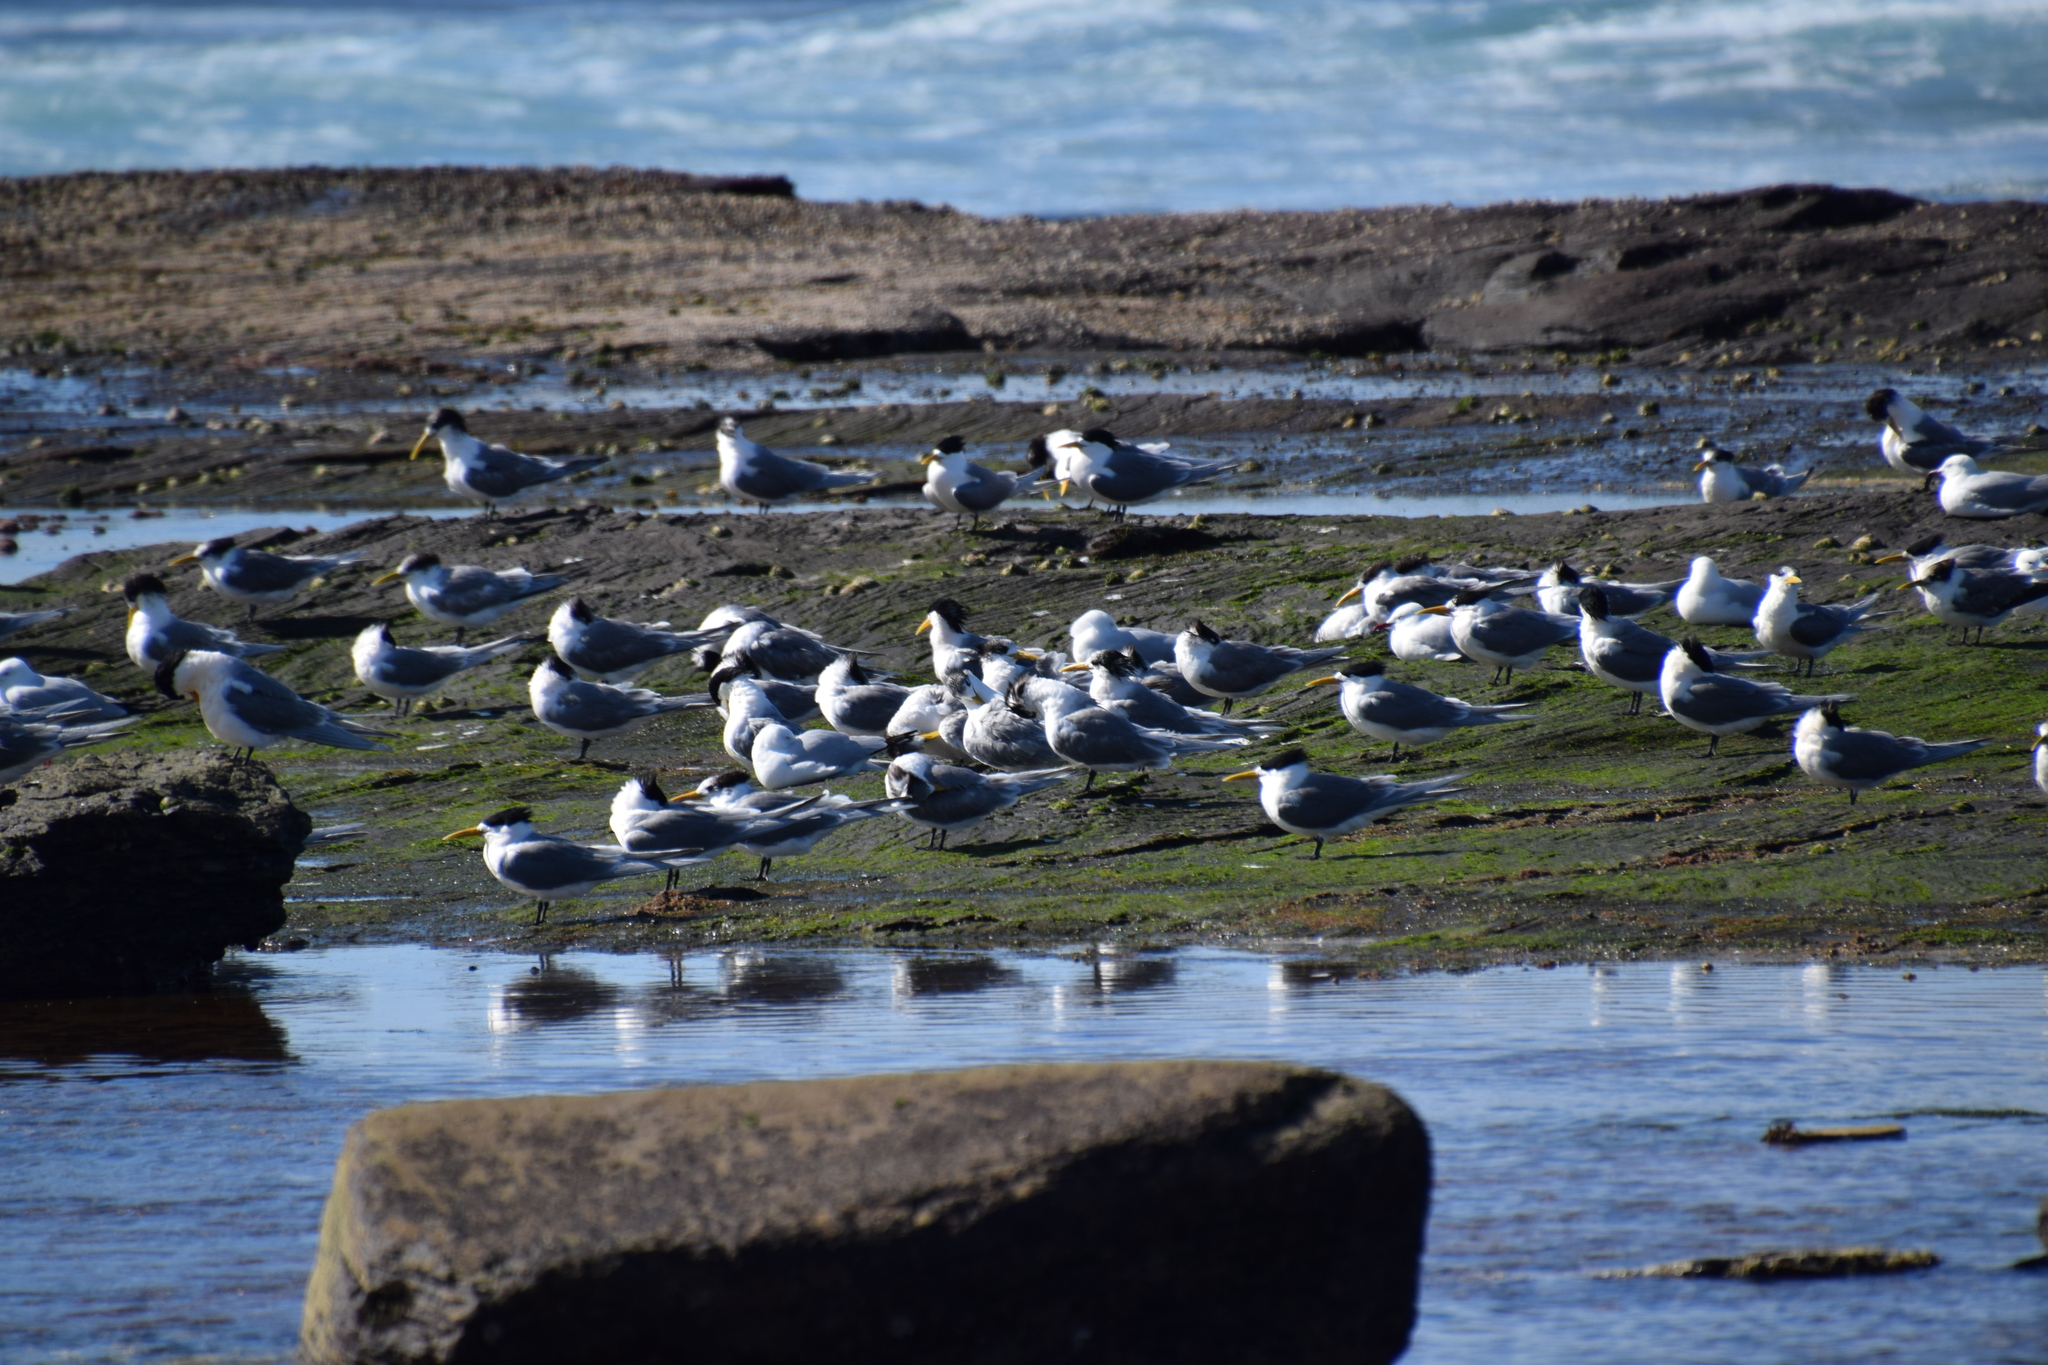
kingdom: Animalia
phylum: Chordata
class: Aves
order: Charadriiformes
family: Laridae
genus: Thalasseus
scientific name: Thalasseus bergii
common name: Greater crested tern
